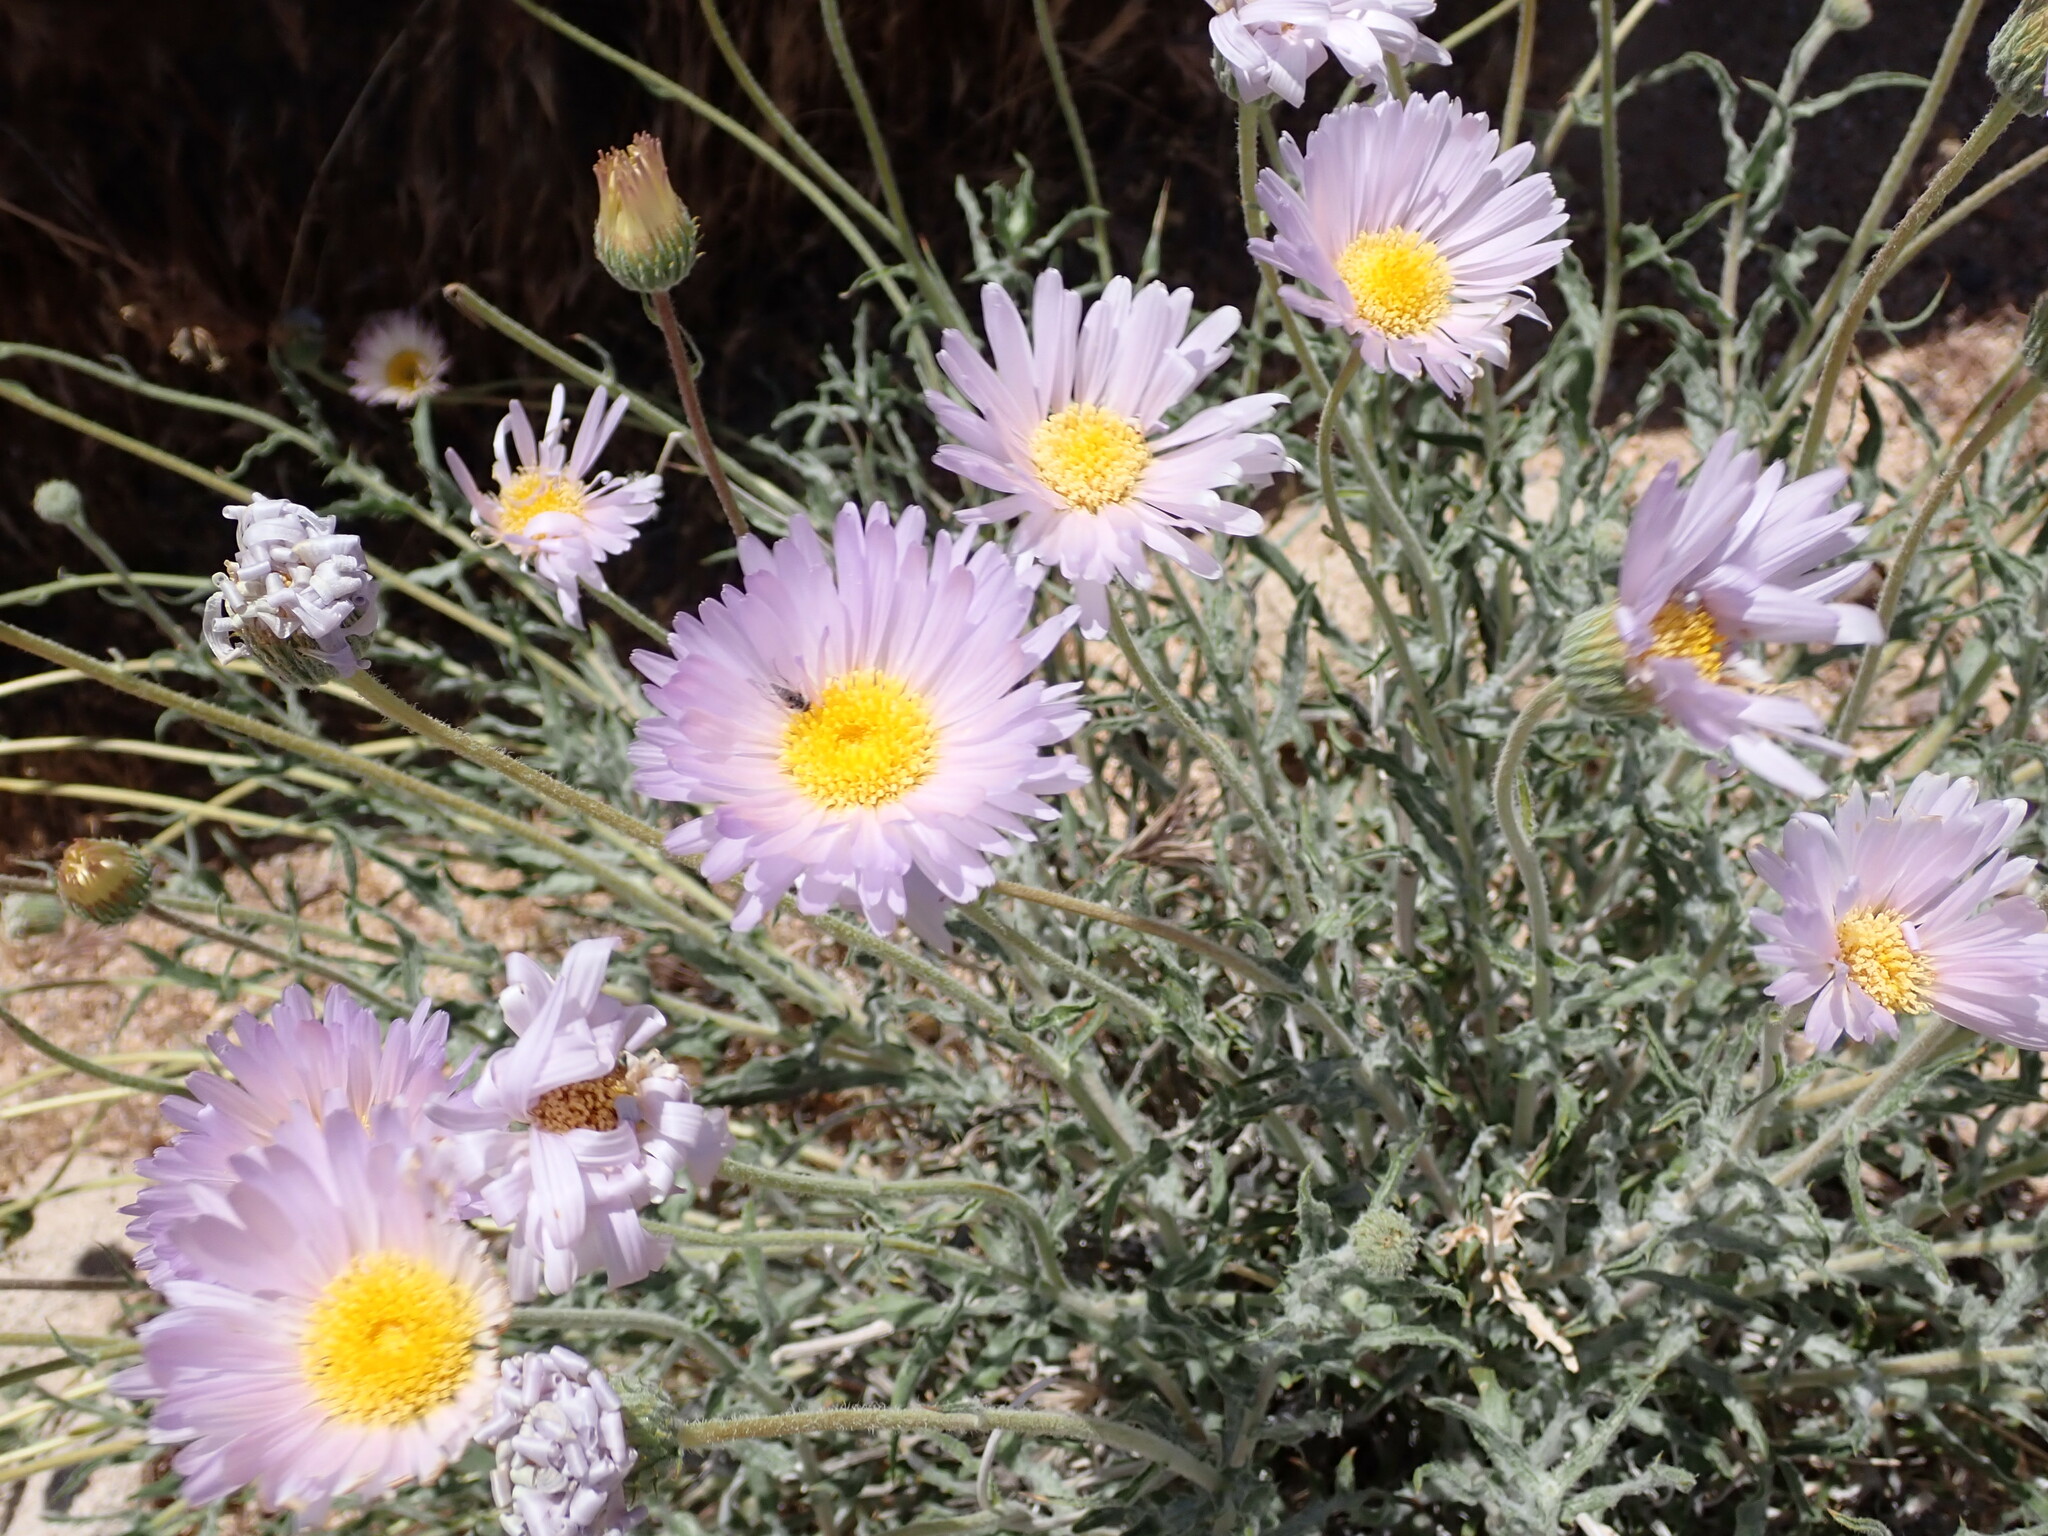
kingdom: Plantae
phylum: Tracheophyta
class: Magnoliopsida
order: Asterales
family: Asteraceae
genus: Xylorhiza
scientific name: Xylorhiza tortifolia
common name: Hurt-leaf woody-aster
